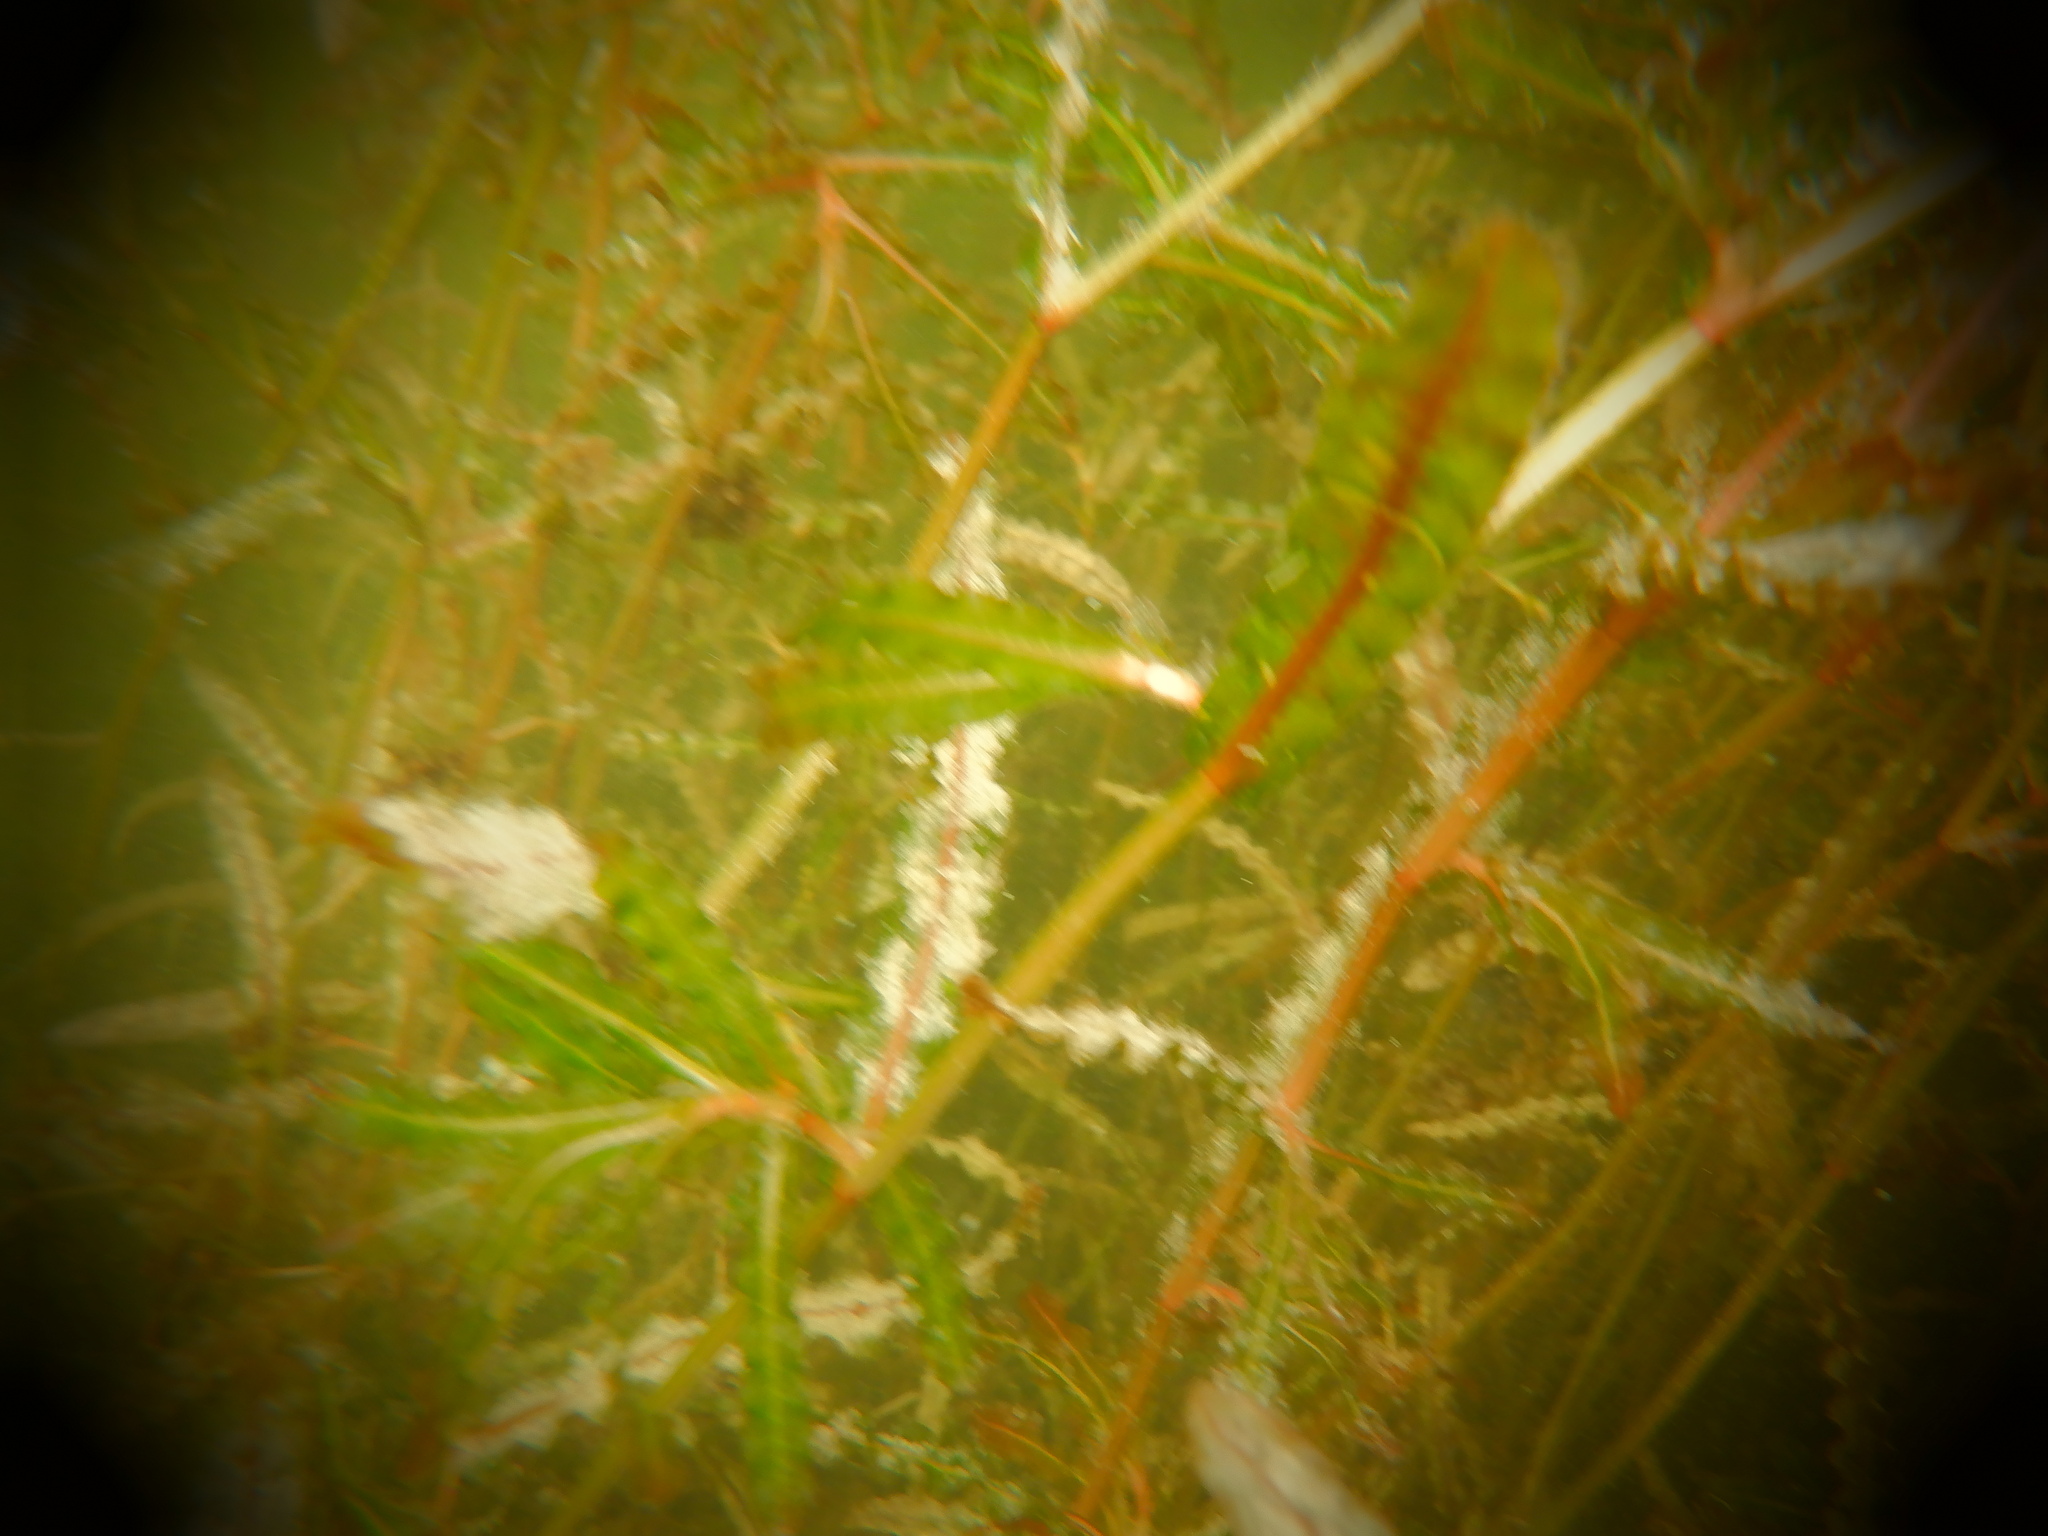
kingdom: Plantae
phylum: Tracheophyta
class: Liliopsida
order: Alismatales
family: Potamogetonaceae
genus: Potamogeton
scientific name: Potamogeton crispus
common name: Curled pondweed
